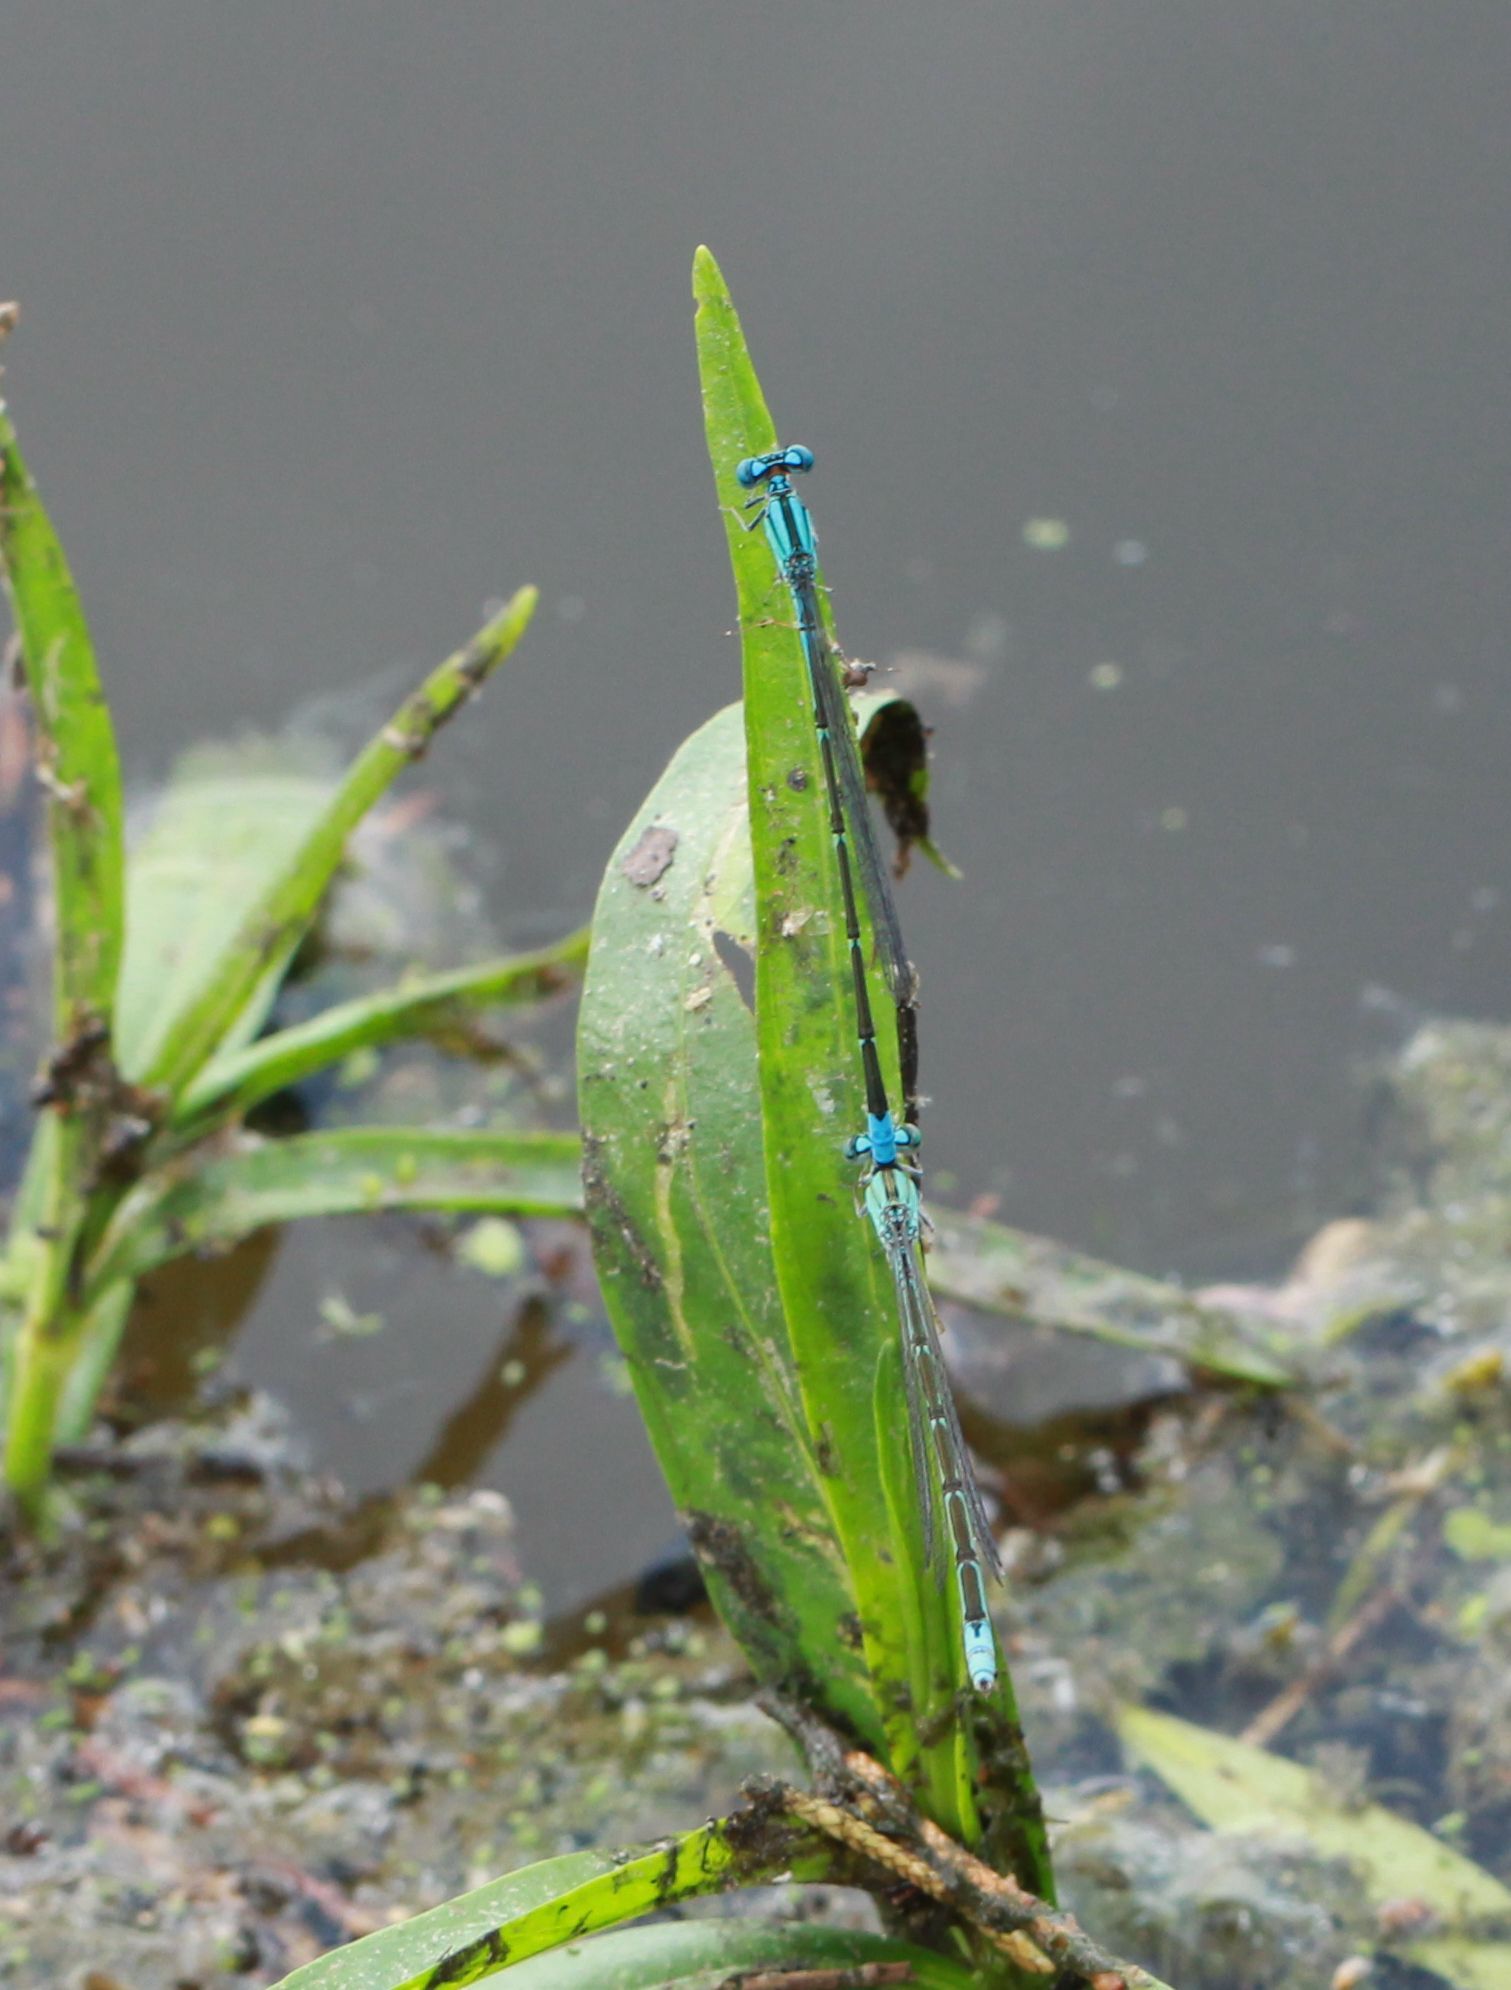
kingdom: Animalia
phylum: Arthropoda
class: Insecta
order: Odonata
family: Coenagrionidae
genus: Enallagma
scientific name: Enallagma traviatum
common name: Slender bluet
